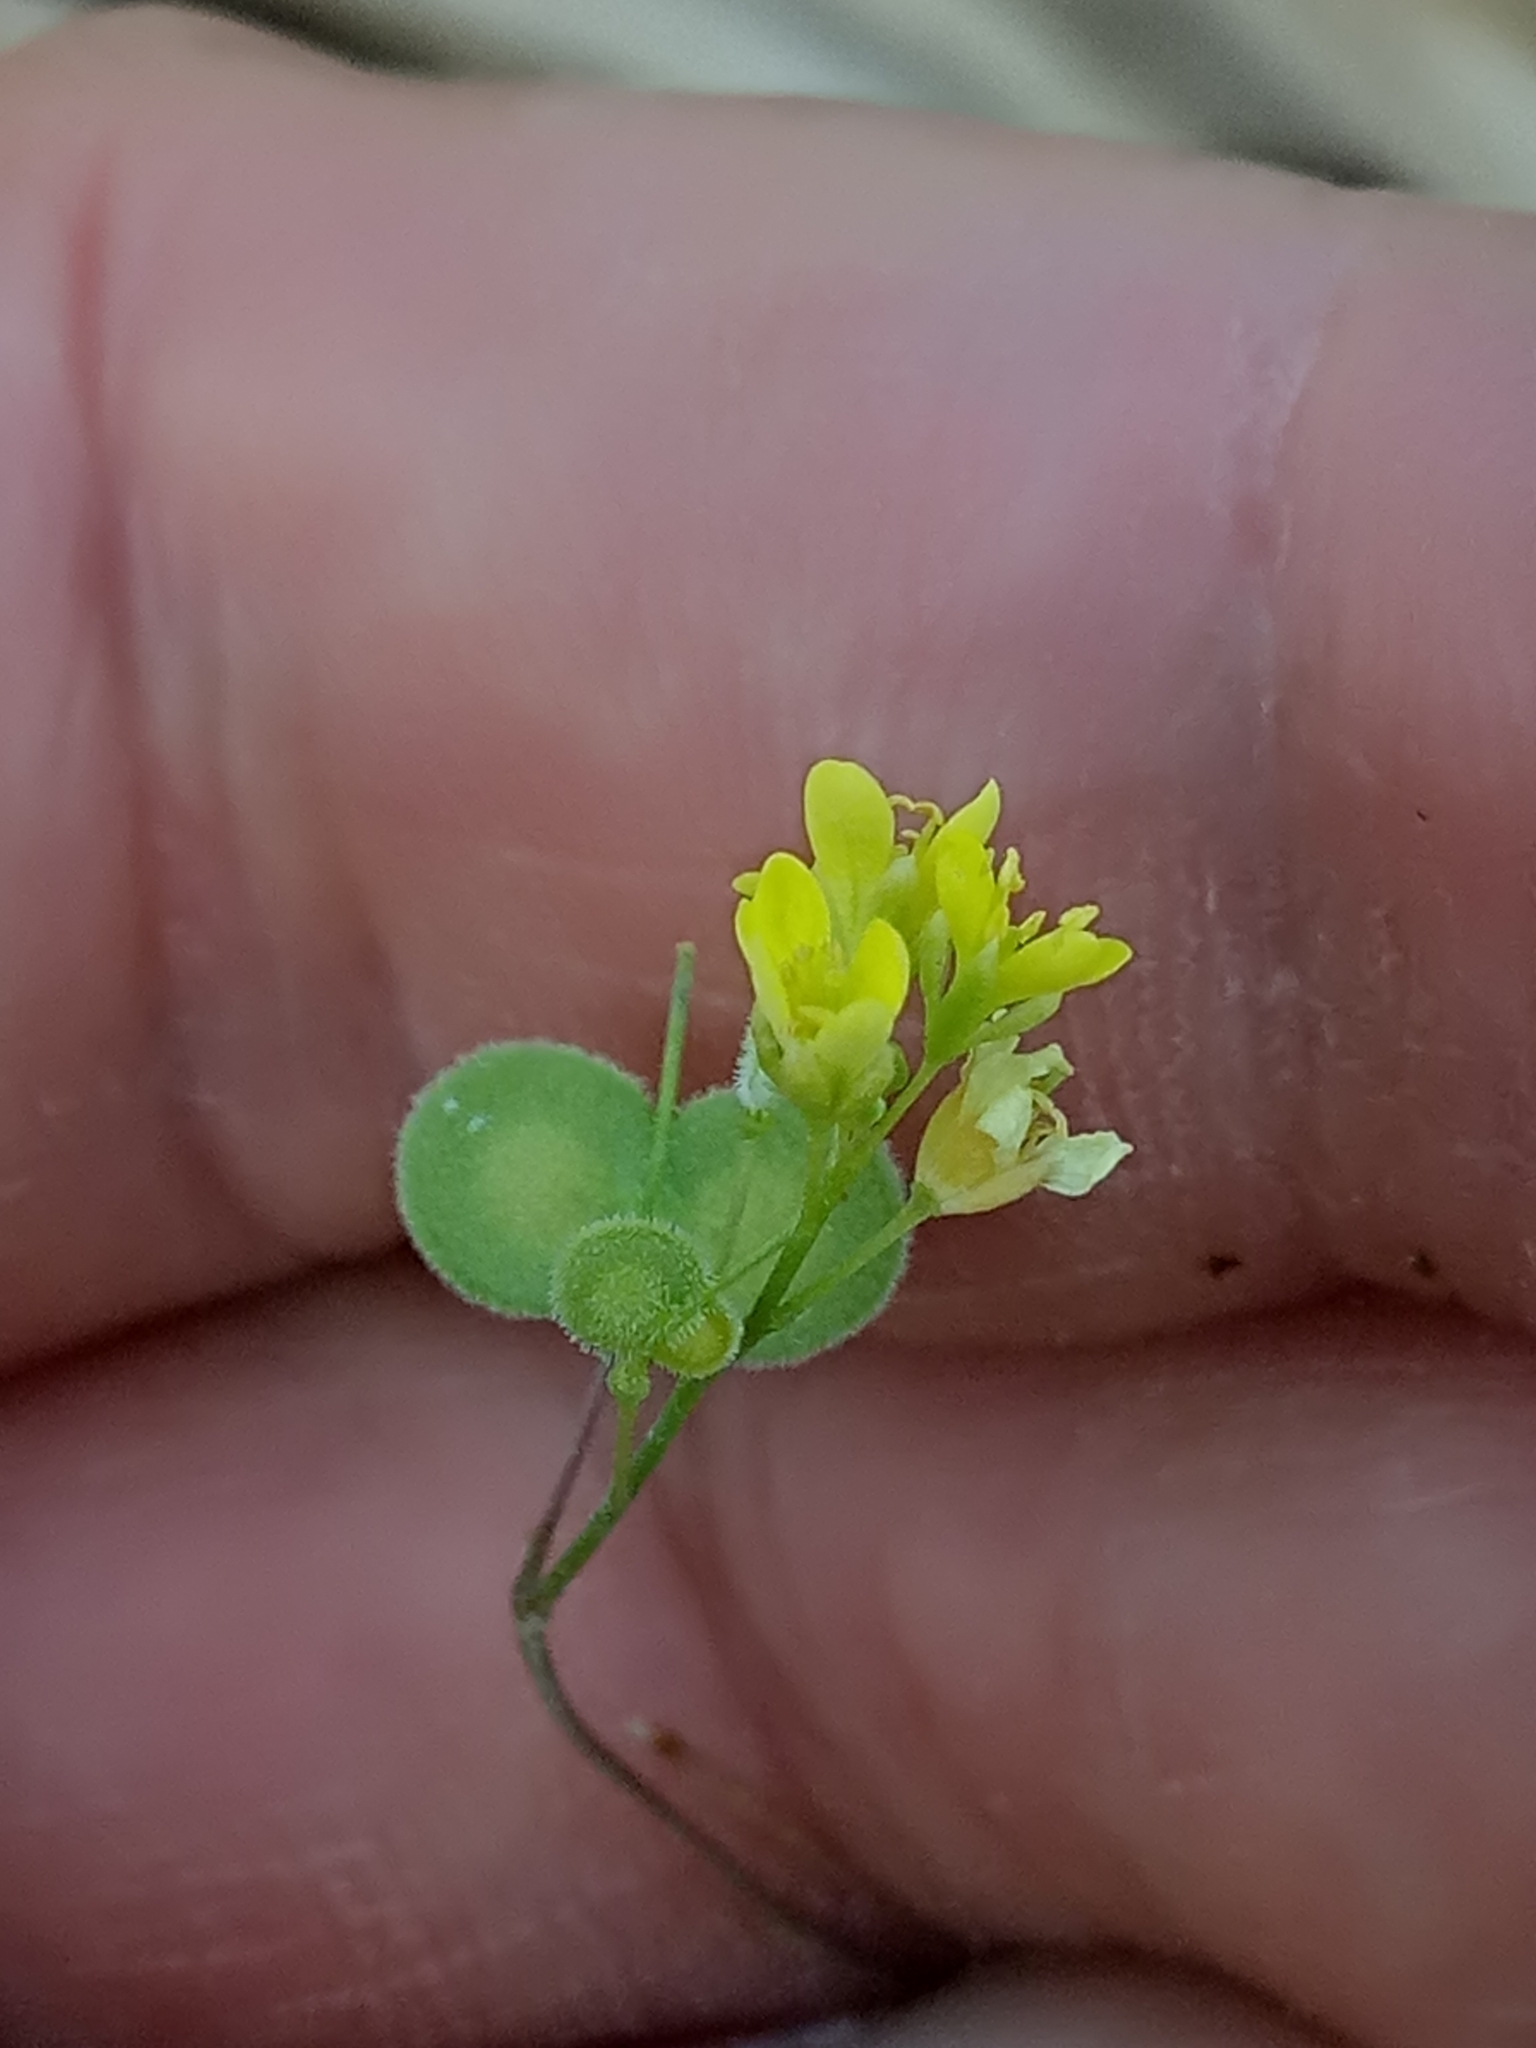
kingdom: Plantae
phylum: Tracheophyta
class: Magnoliopsida
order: Brassicales
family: Brassicaceae
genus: Biscutella
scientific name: Biscutella didyma
